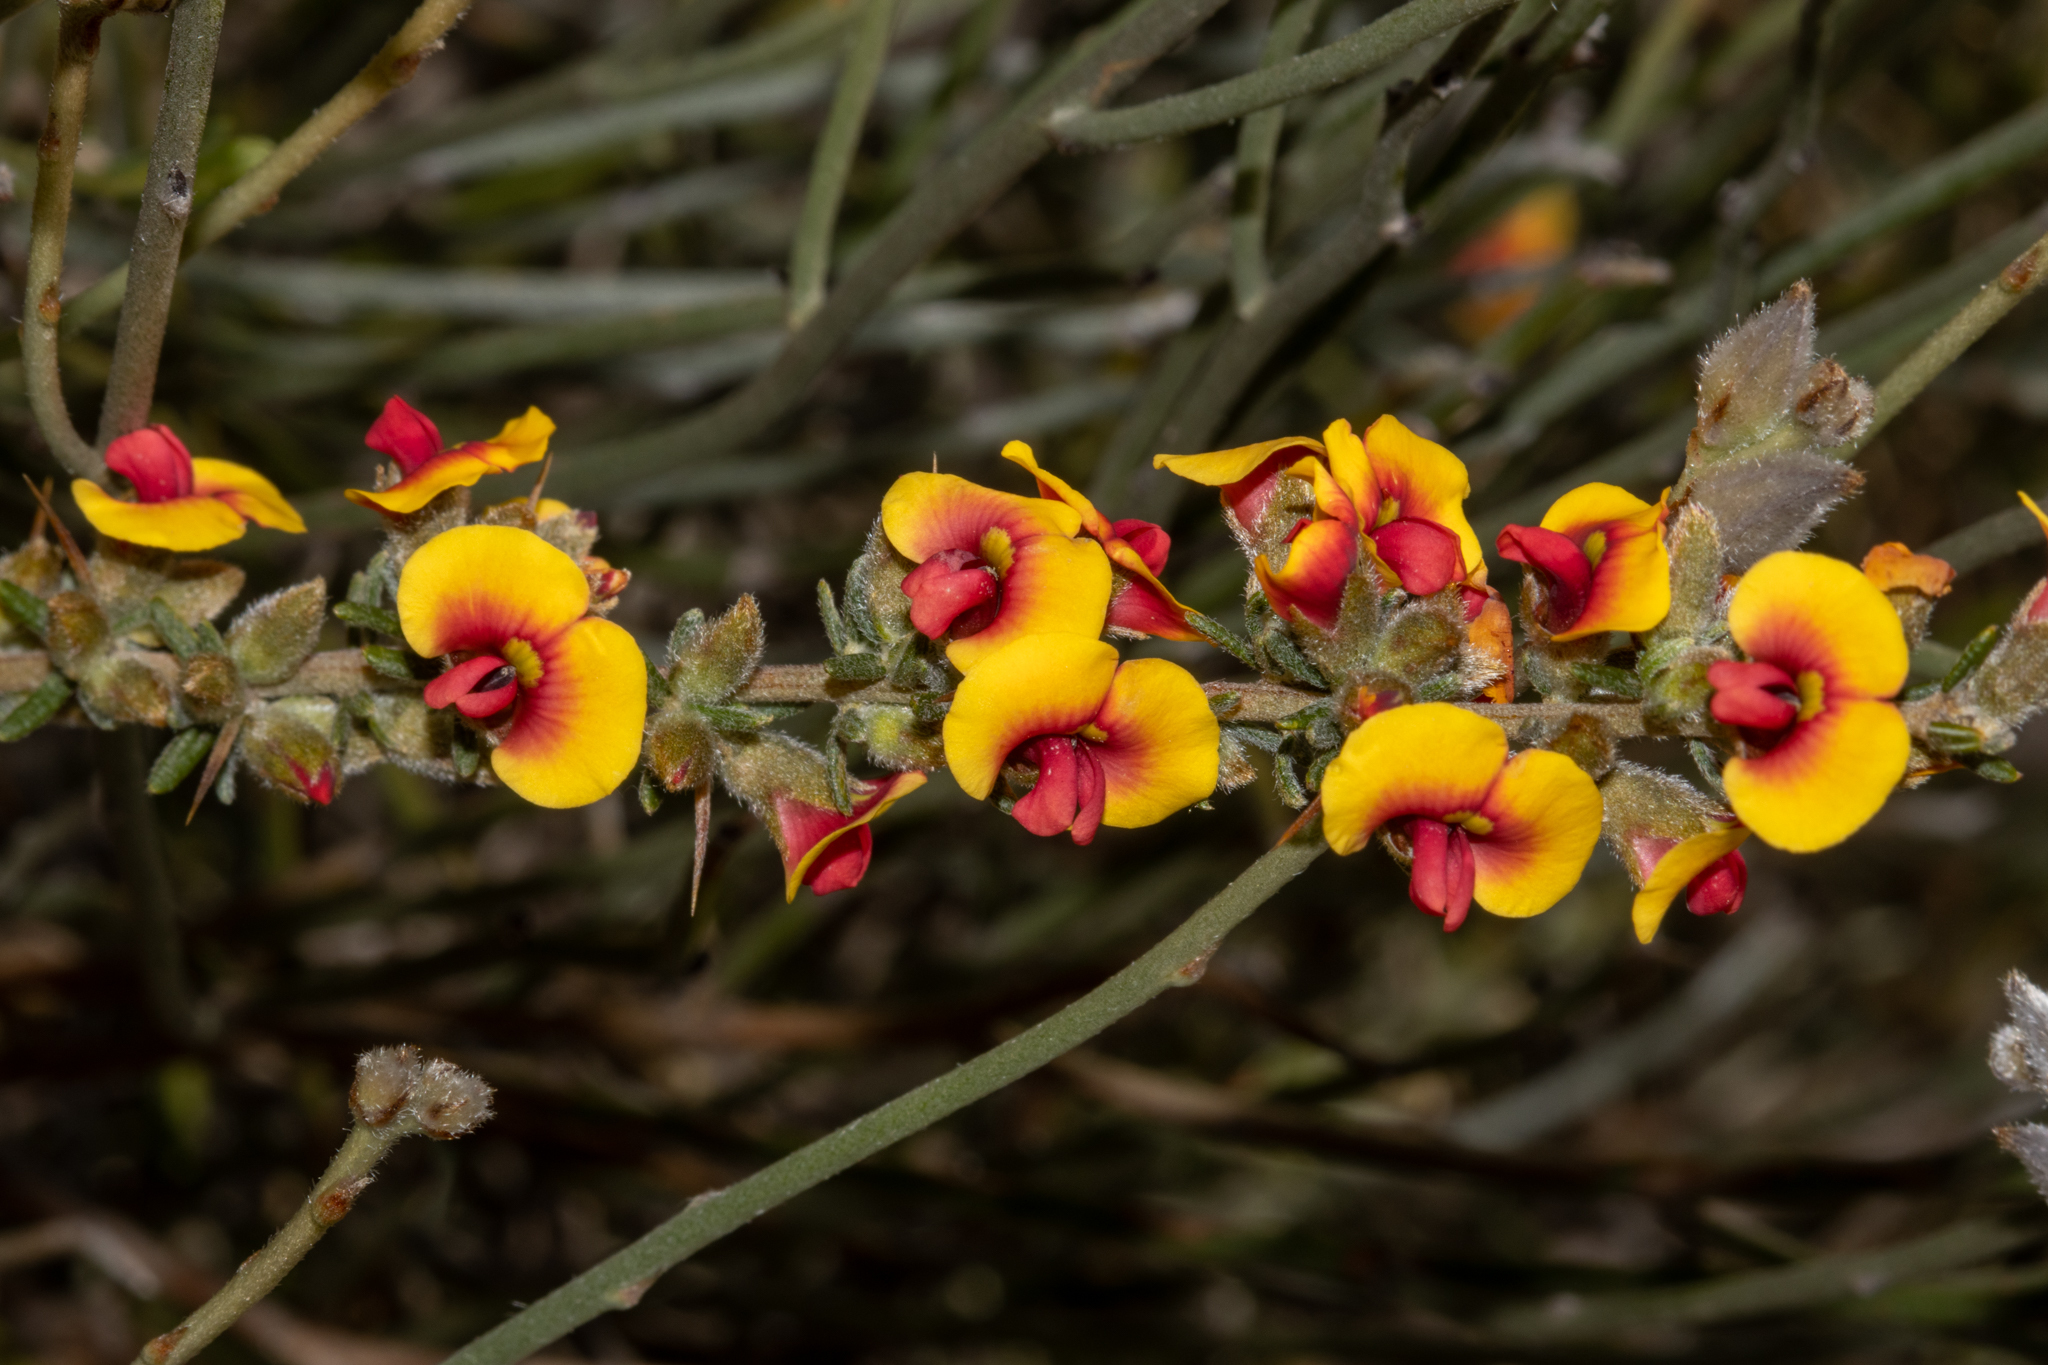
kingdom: Plantae
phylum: Tracheophyta
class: Magnoliopsida
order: Fabales
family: Fabaceae
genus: Mirbelia
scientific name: Mirbelia spinosa
